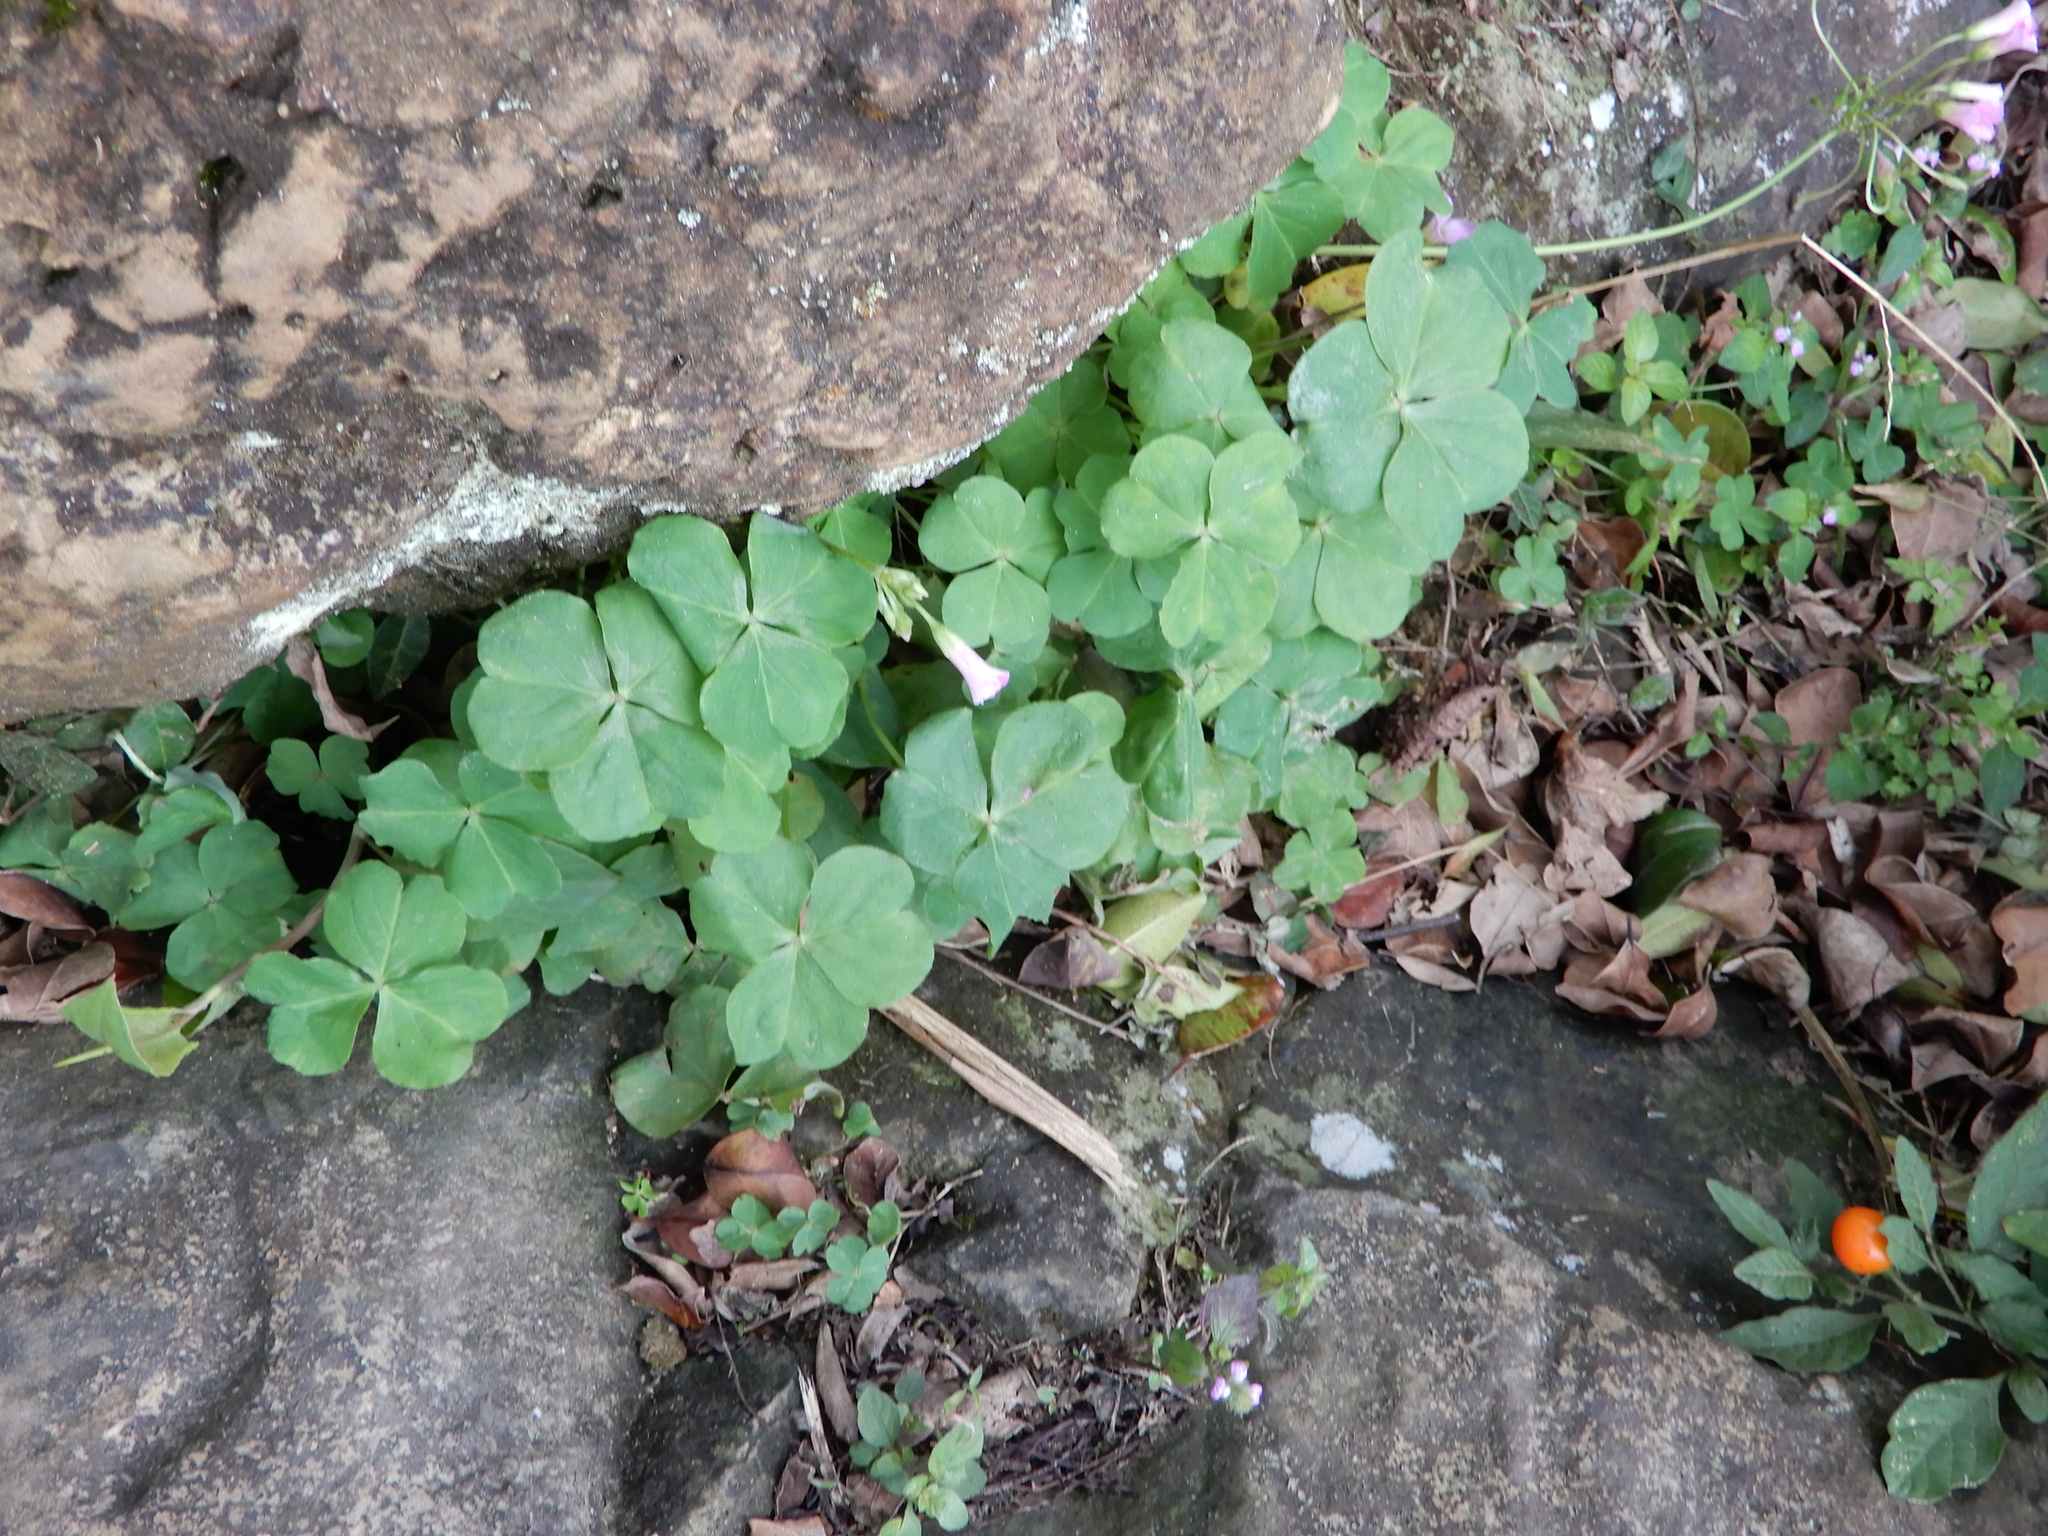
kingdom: Plantae
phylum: Tracheophyta
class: Magnoliopsida
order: Oxalidales
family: Oxalidaceae
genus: Oxalis
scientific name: Oxalis debilis
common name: Large-flowered pink-sorrel
